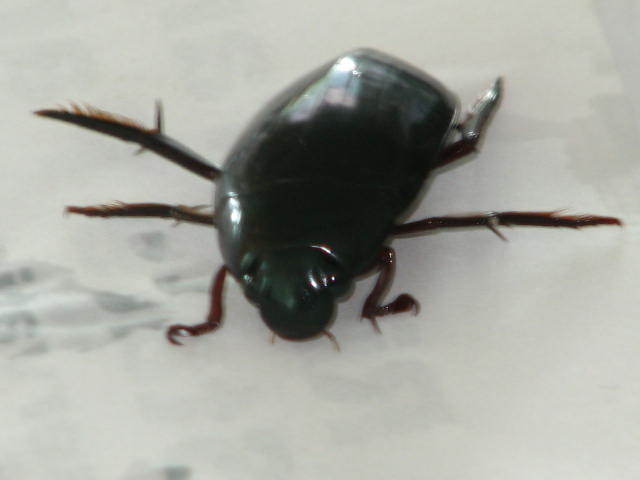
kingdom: Animalia
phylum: Arthropoda
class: Insecta
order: Coleoptera
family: Hydrophilidae
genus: Hydrophilus
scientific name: Hydrophilus triangularis
